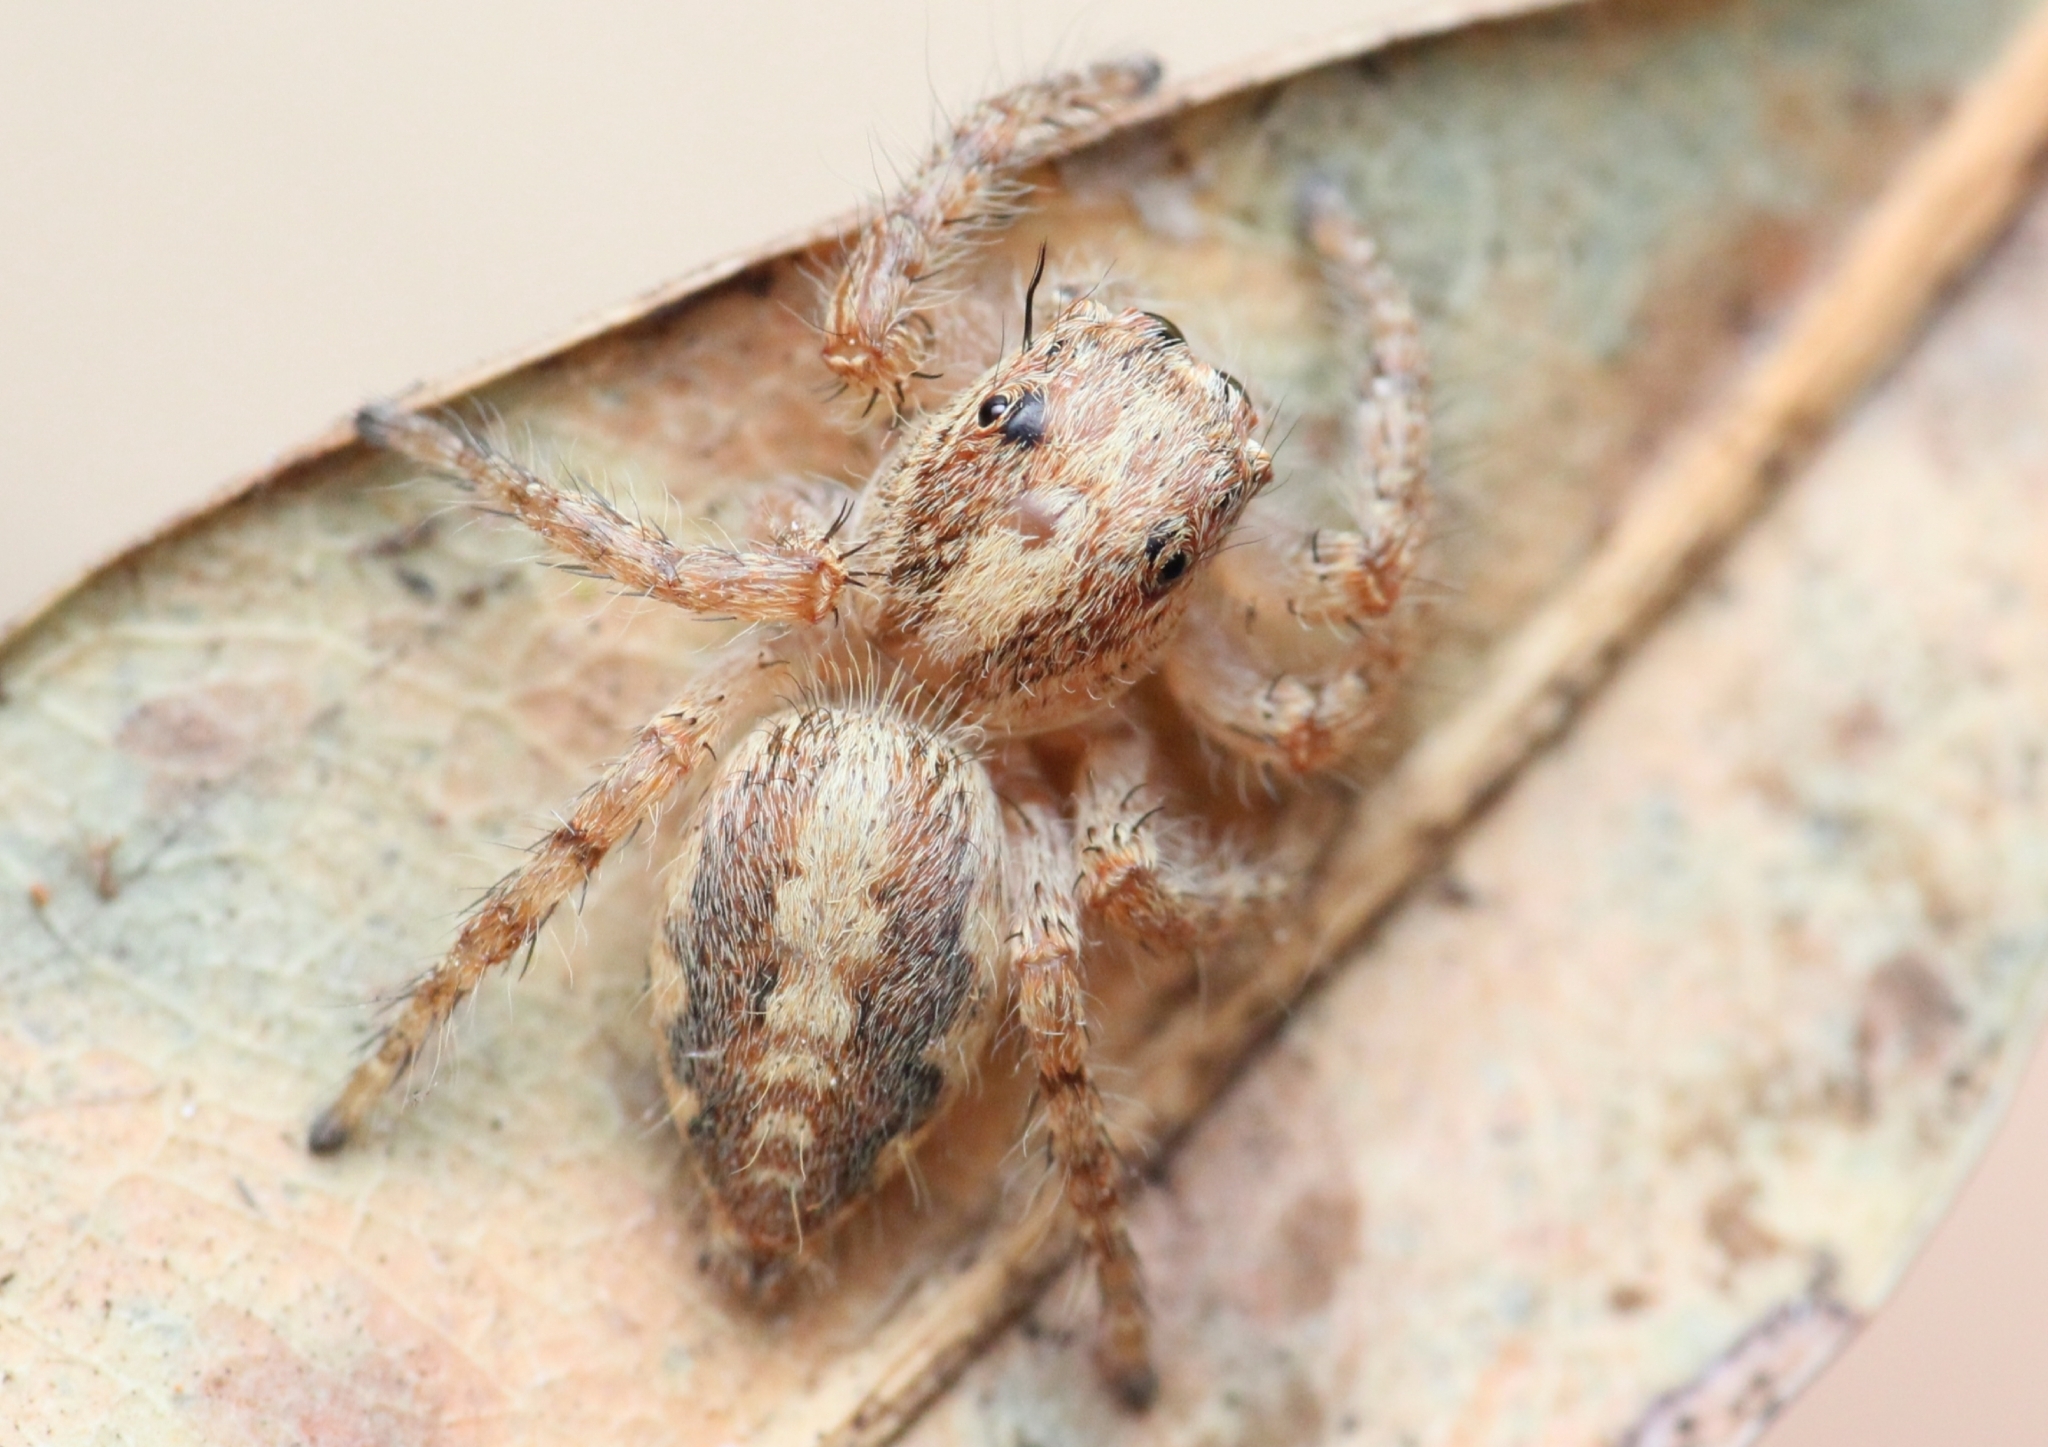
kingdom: Animalia
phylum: Arthropoda
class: Arachnida
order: Araneae
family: Salticidae
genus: Hyllus
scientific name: Hyllus treleaveni
